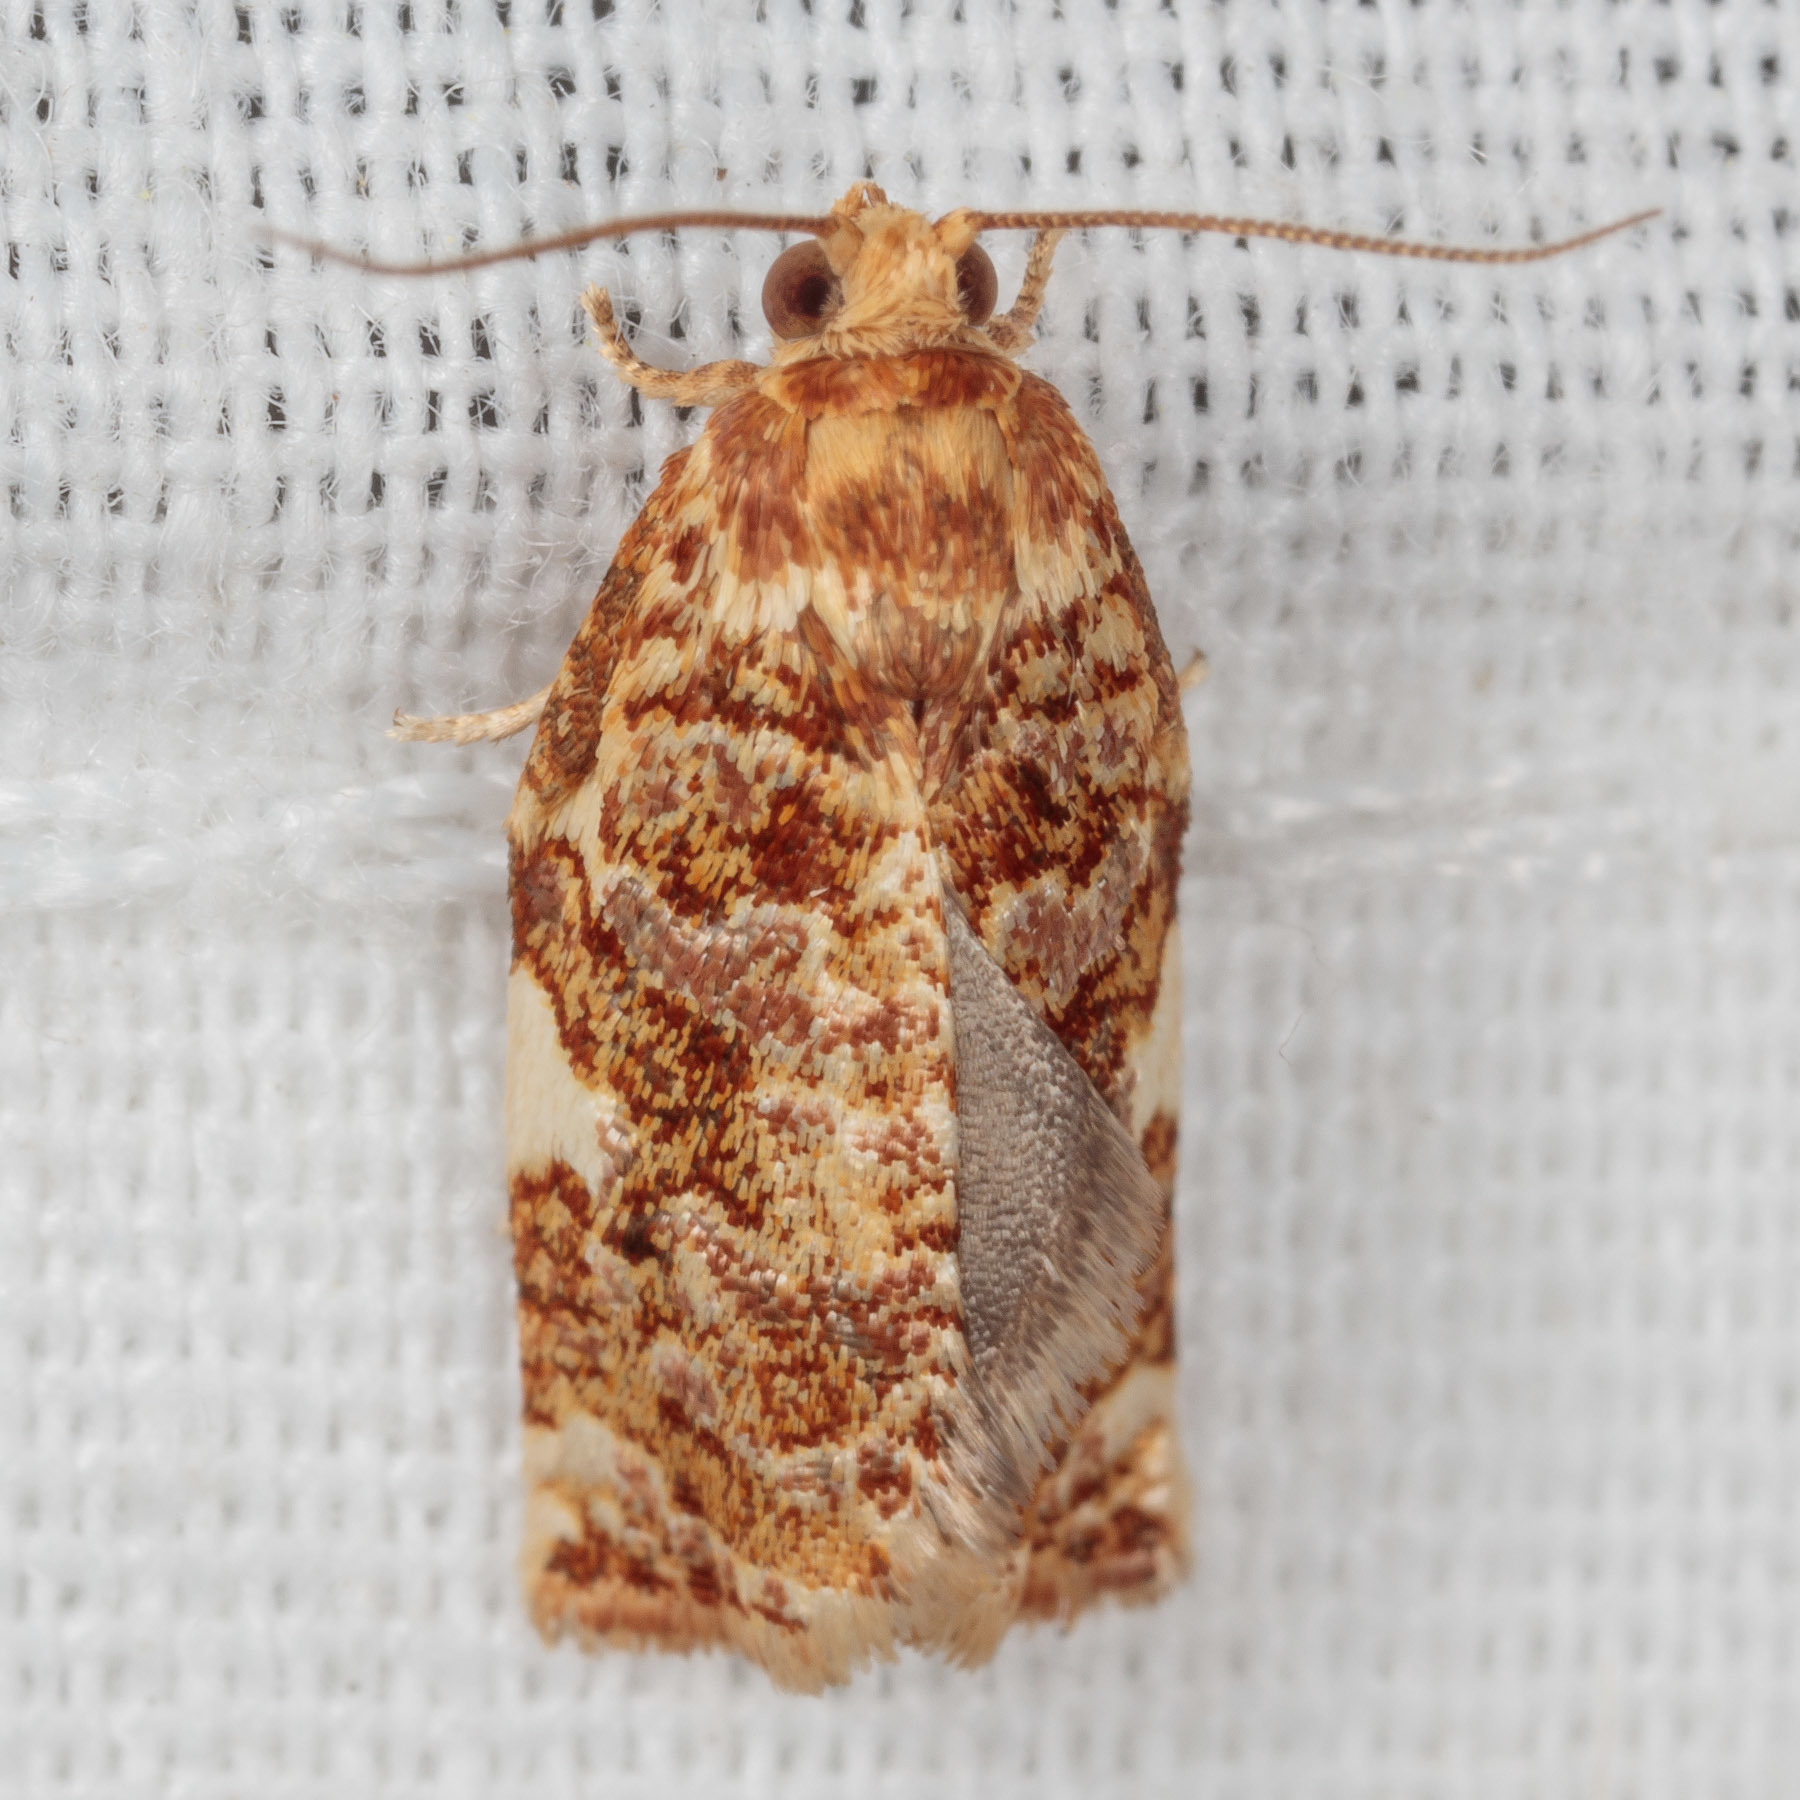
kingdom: Animalia
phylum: Arthropoda
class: Insecta
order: Lepidoptera
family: Tortricidae
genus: Archips
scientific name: Archips argyrospila
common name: Fruit-tree leafroller moth
